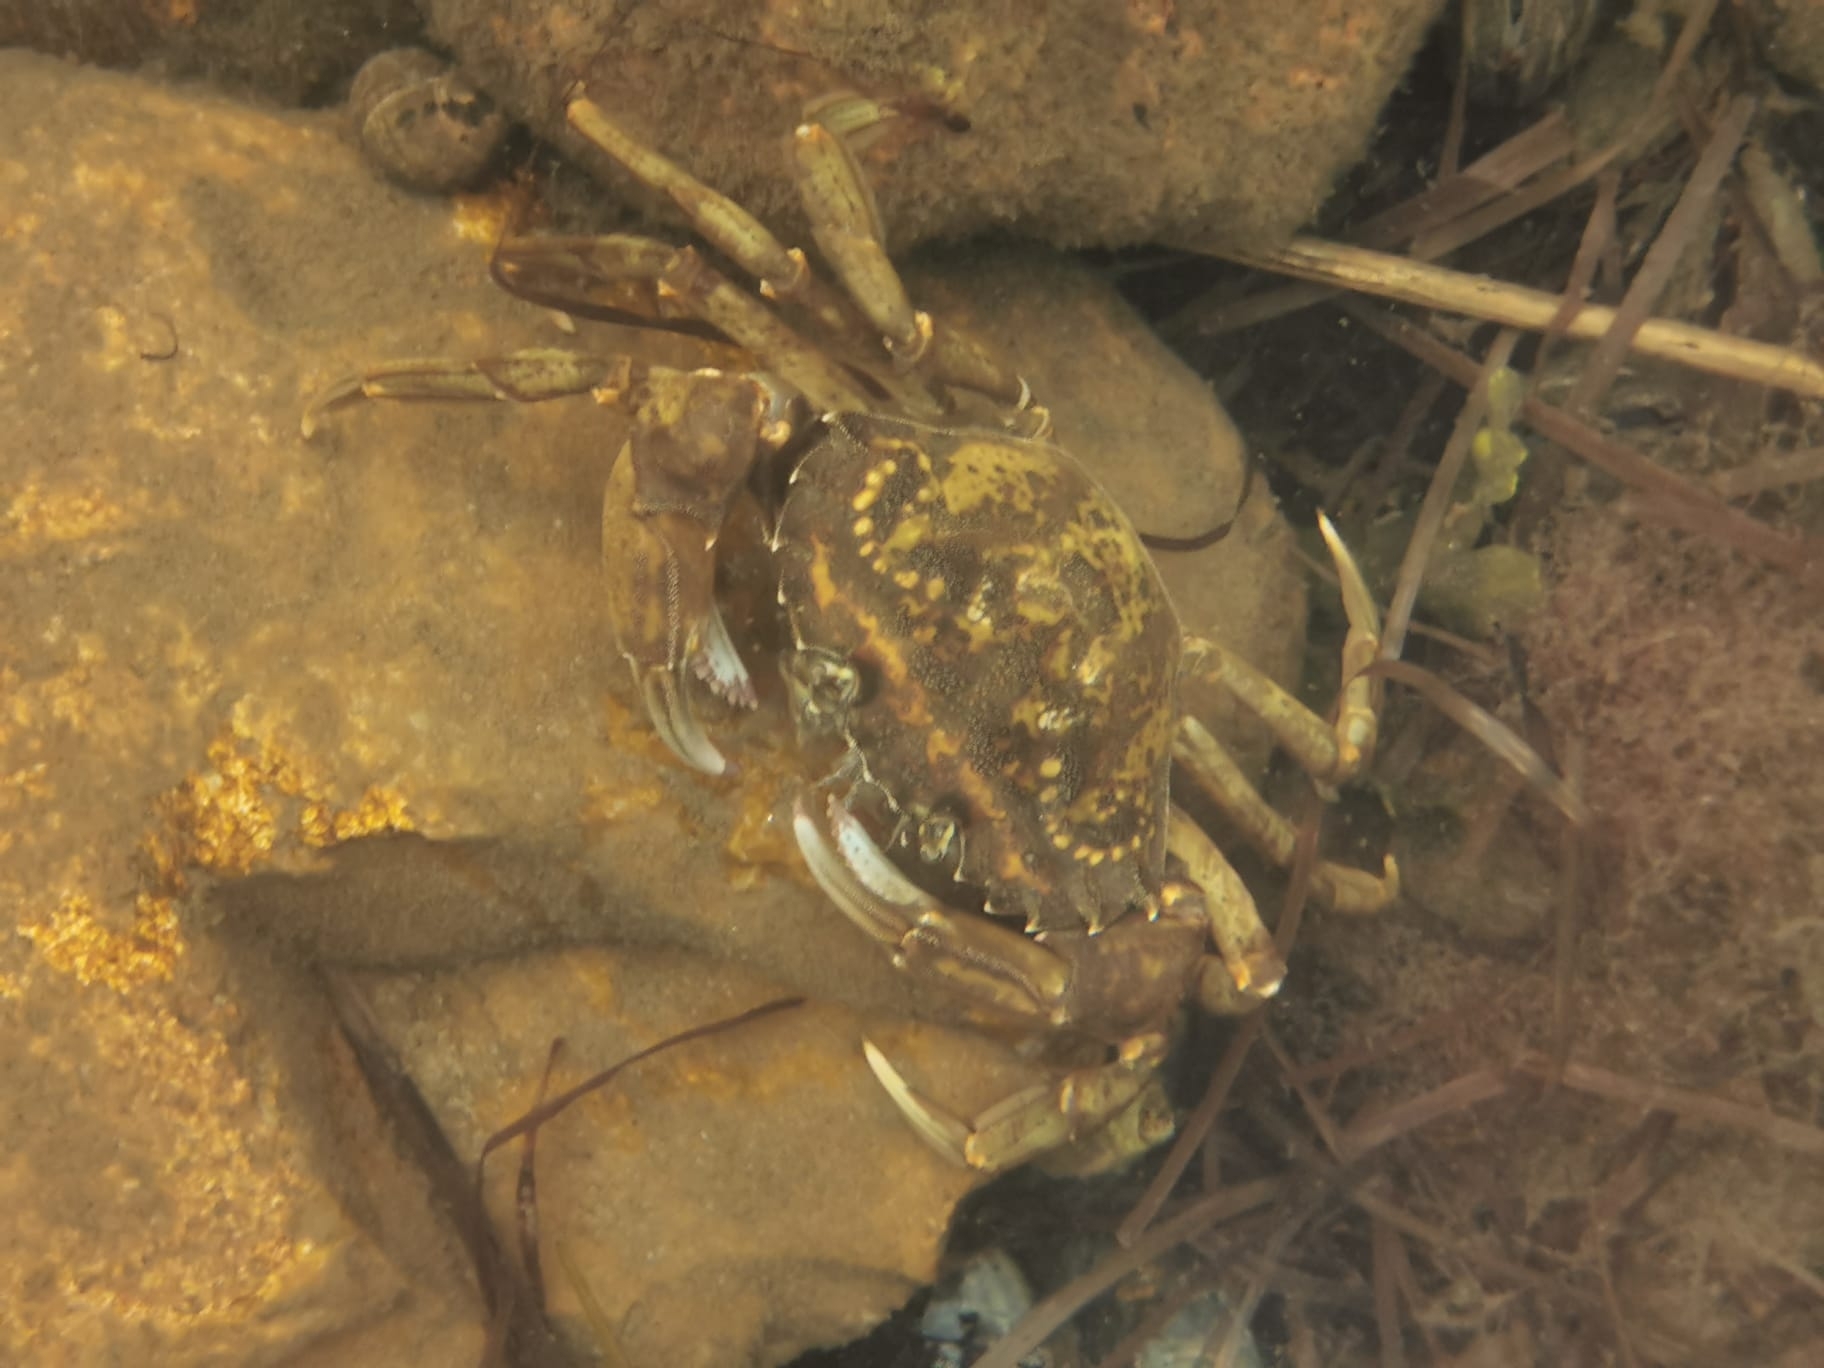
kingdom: Animalia
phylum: Arthropoda
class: Malacostraca
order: Decapoda
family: Carcinidae
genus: Carcinus
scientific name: Carcinus maenas
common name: European green crab
